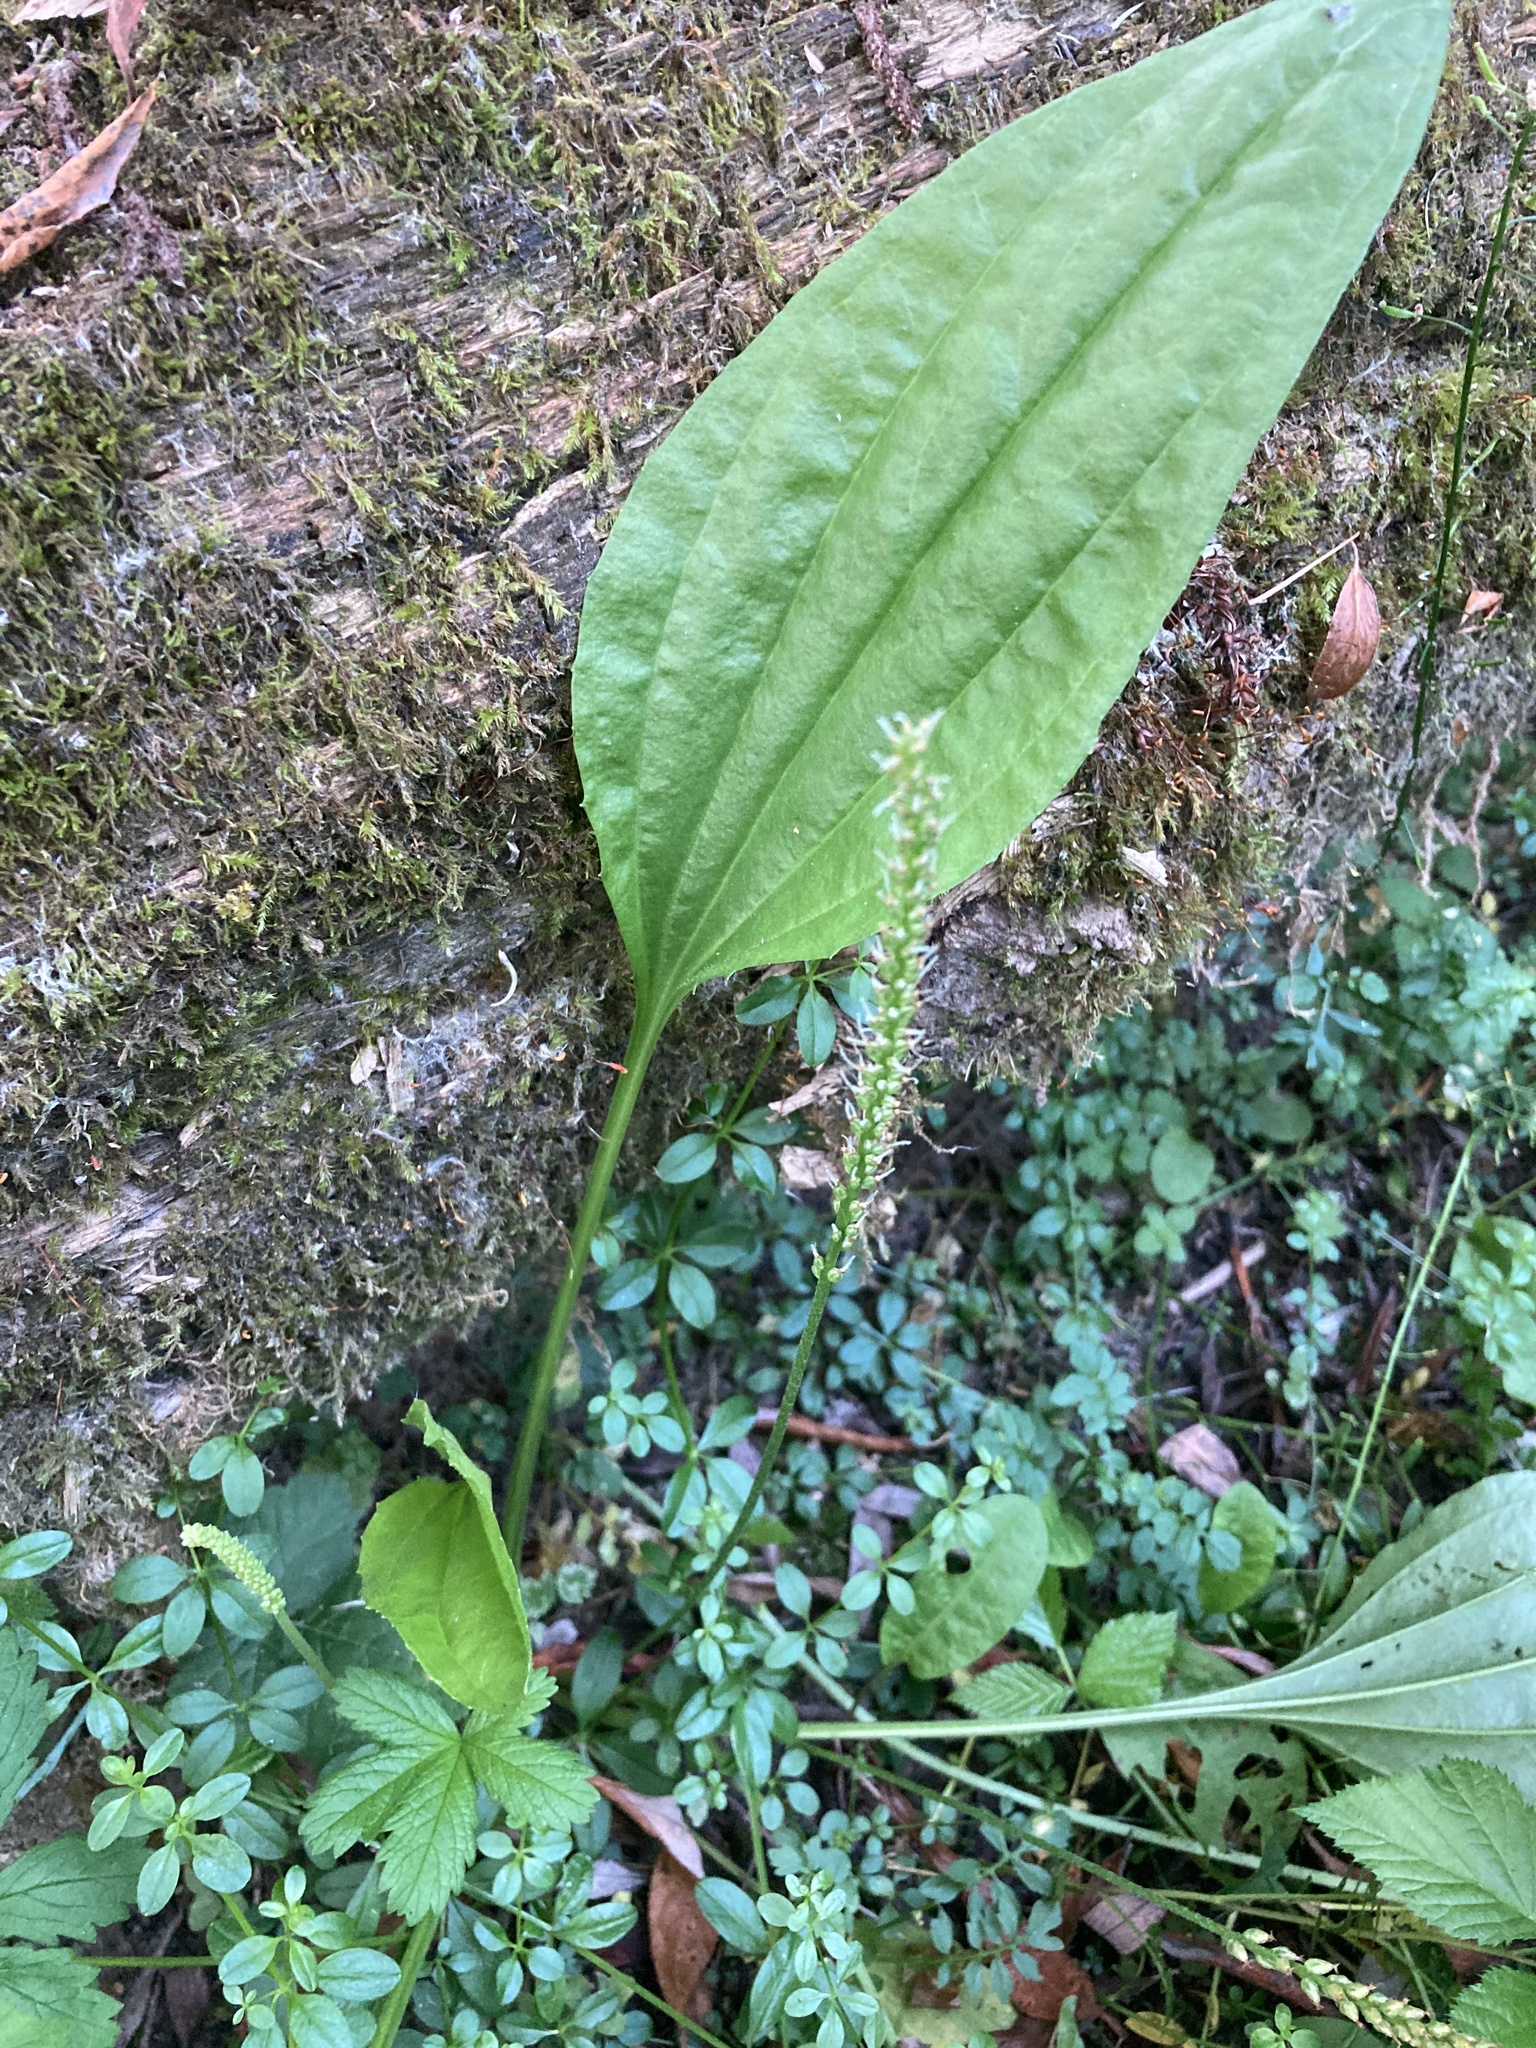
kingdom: Plantae
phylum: Tracheophyta
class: Magnoliopsida
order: Lamiales
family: Plantaginaceae
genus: Plantago
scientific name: Plantago major
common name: Common plantain
